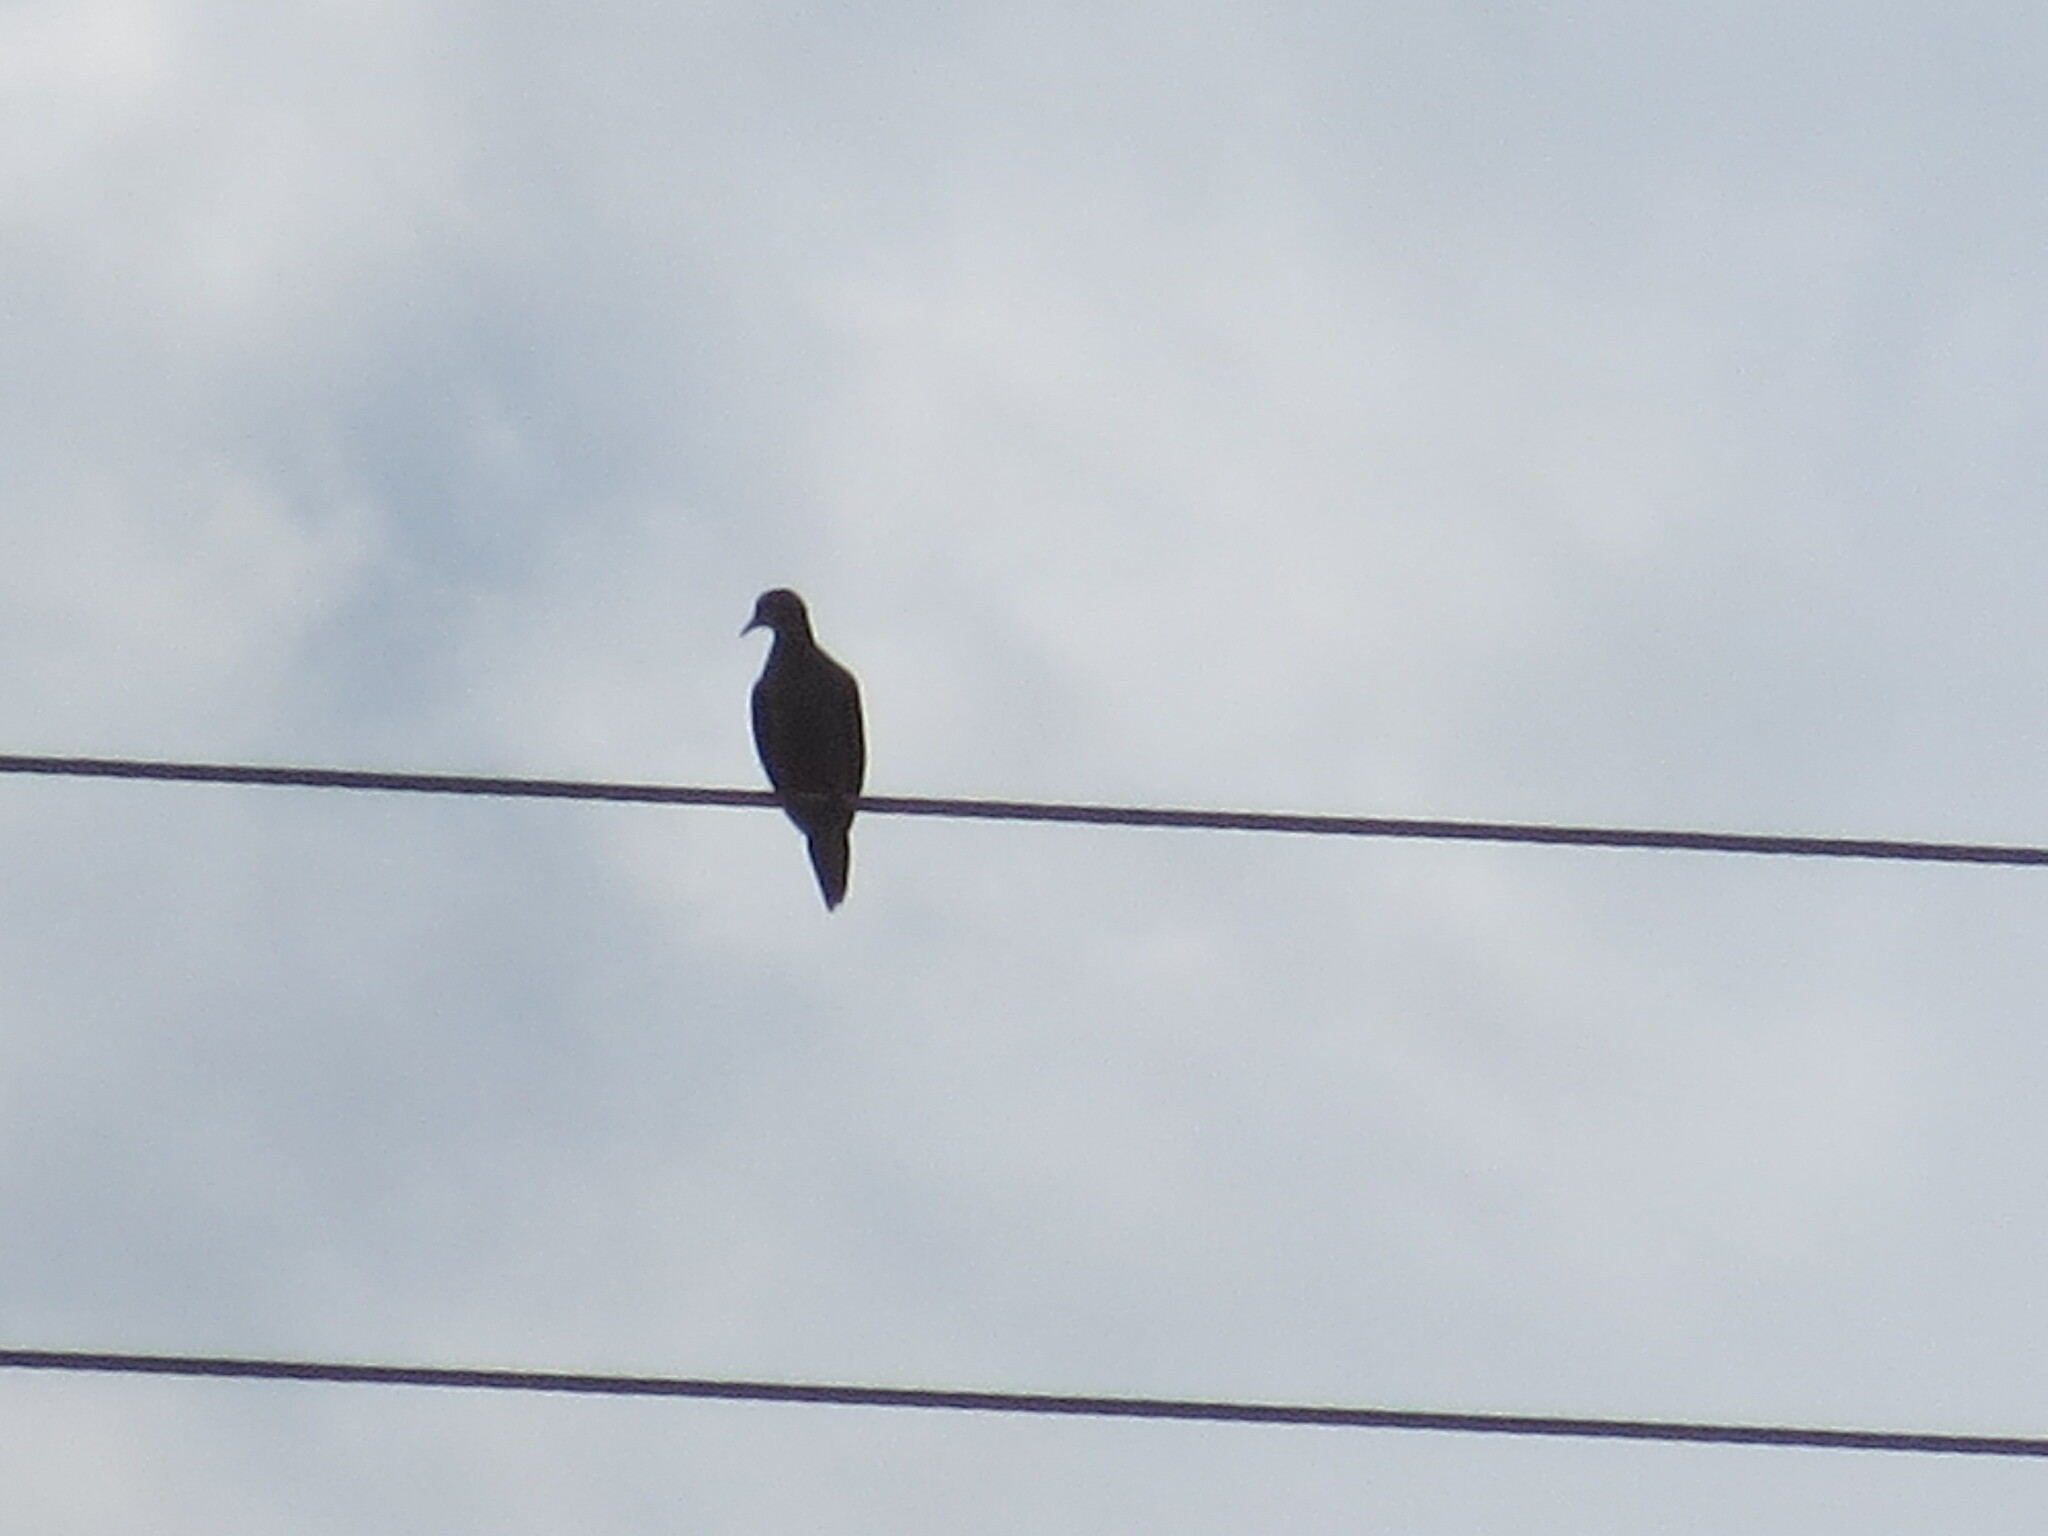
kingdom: Animalia
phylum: Chordata
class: Aves
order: Columbiformes
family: Columbidae
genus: Zenaida
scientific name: Zenaida macroura
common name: Mourning dove
